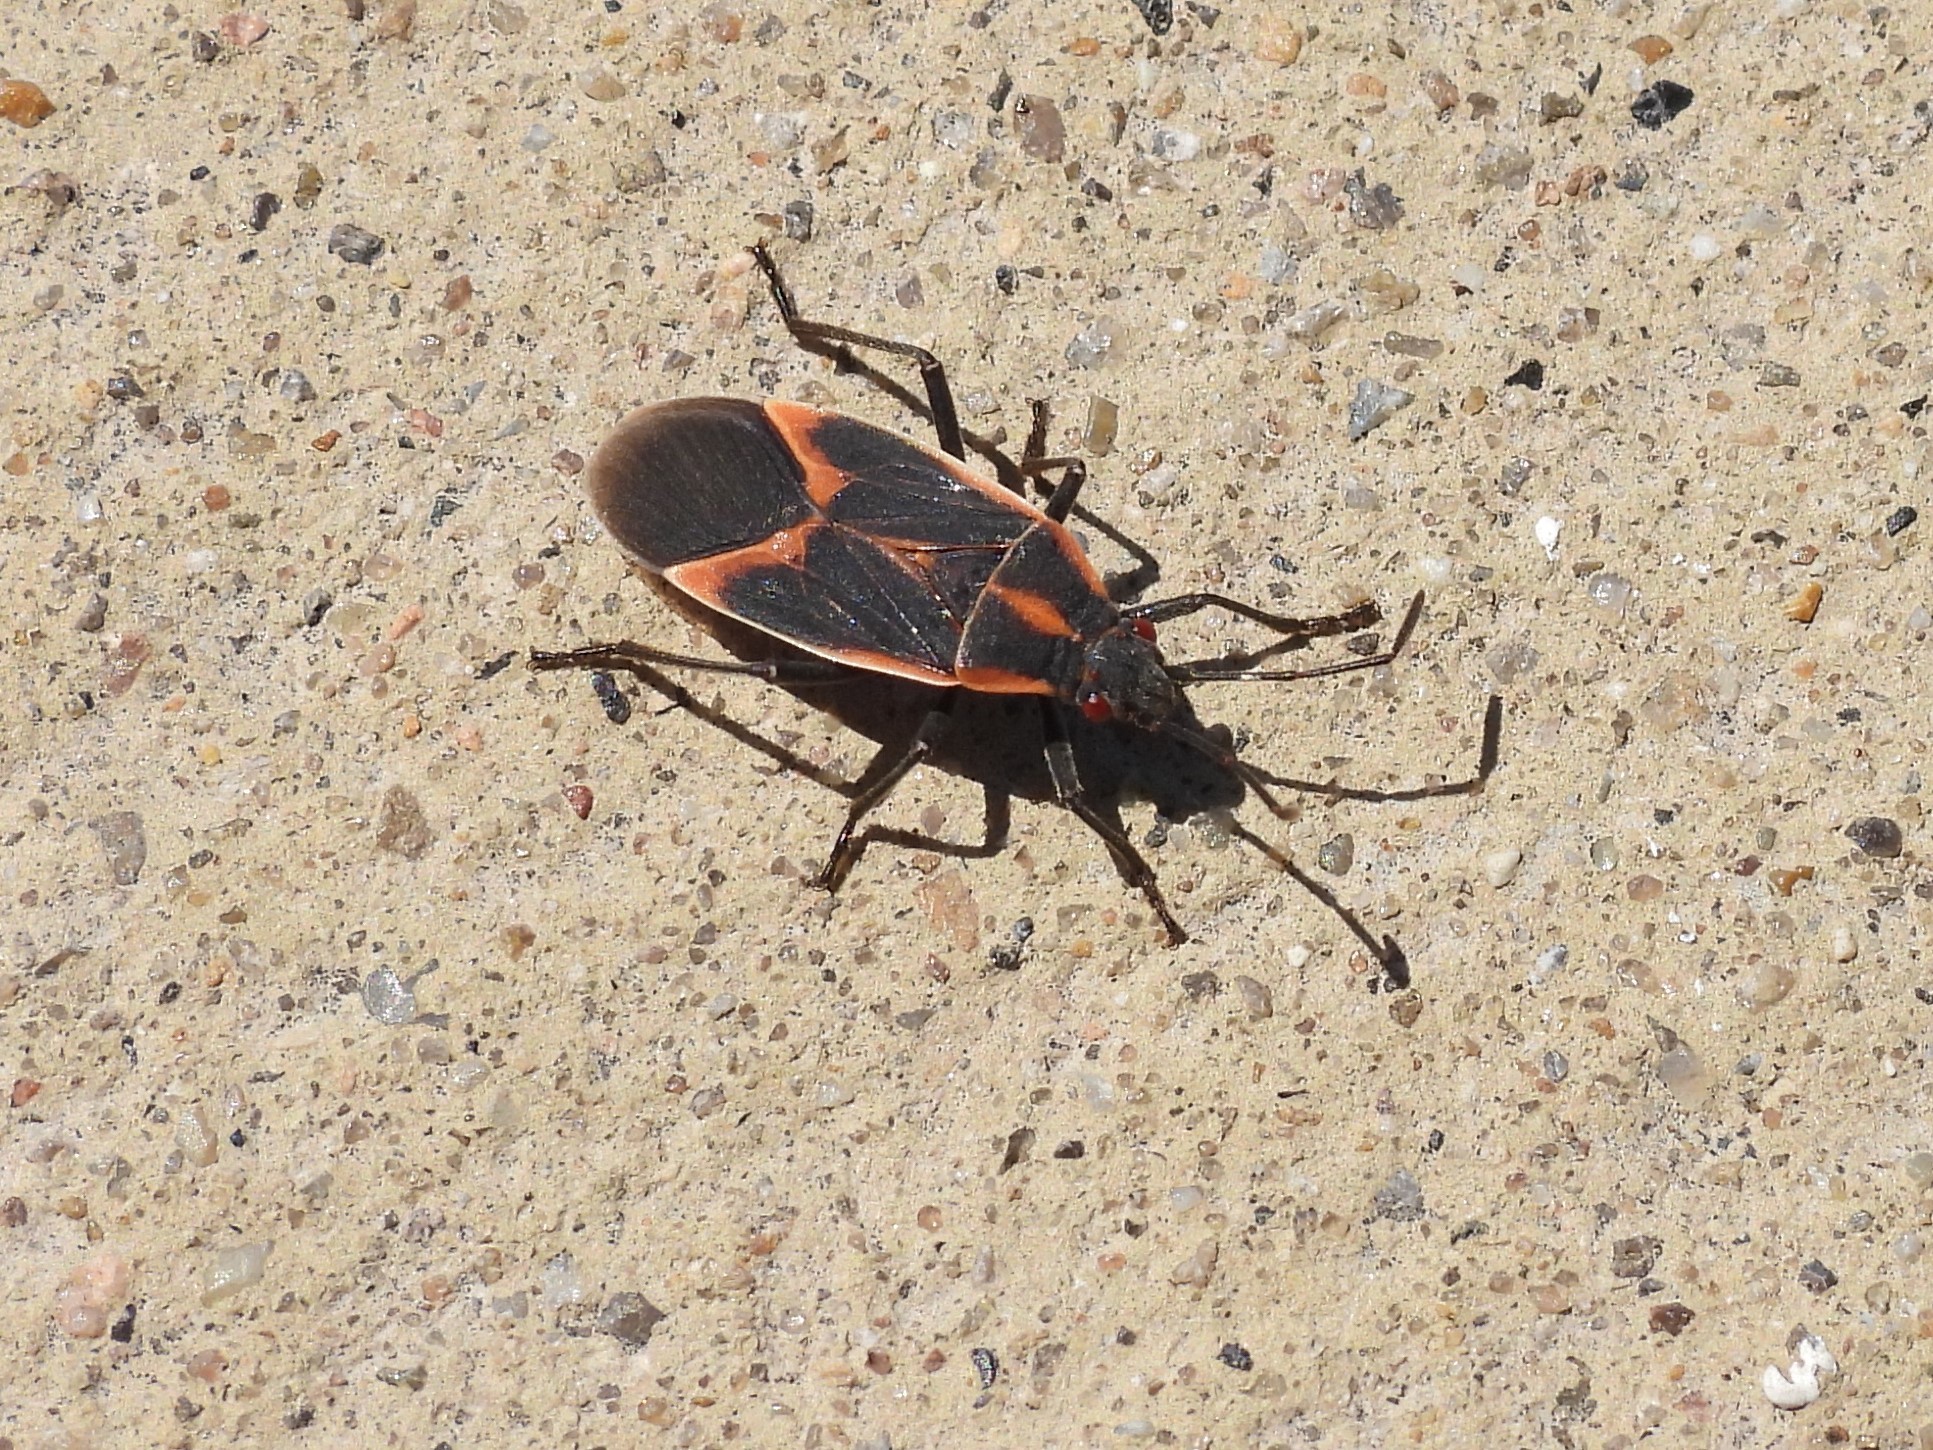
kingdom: Animalia
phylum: Arthropoda
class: Insecta
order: Hemiptera
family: Rhopalidae
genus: Boisea
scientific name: Boisea trivittata
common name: Boxelder bug
